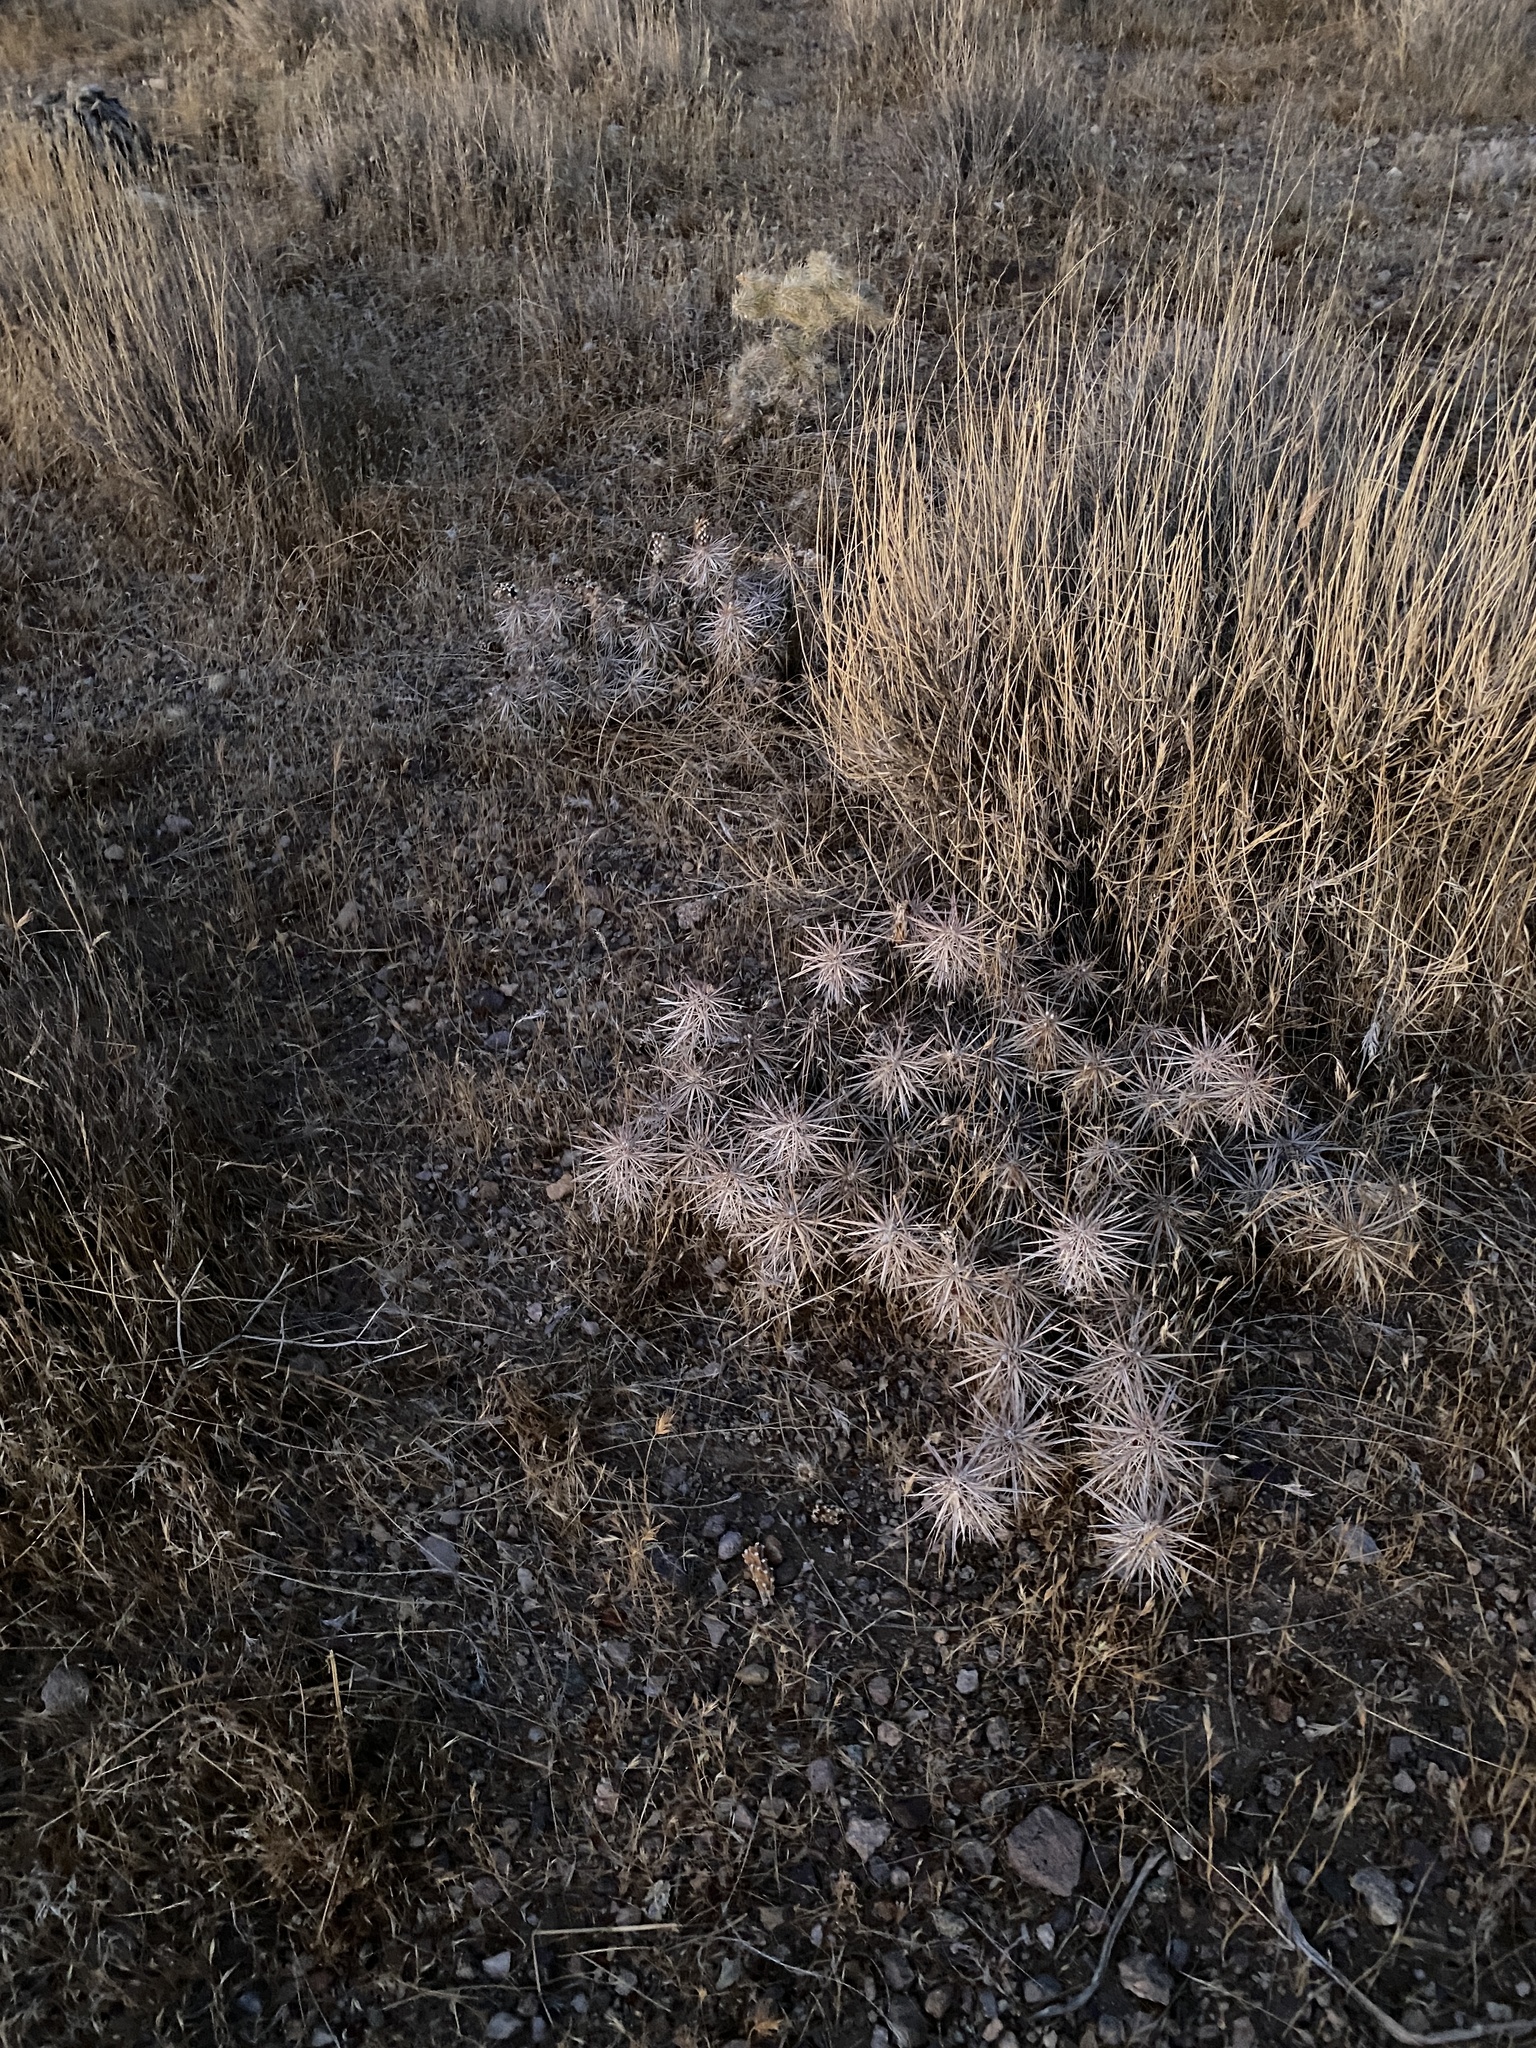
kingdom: Plantae
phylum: Tracheophyta
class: Magnoliopsida
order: Caryophyllales
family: Cactaceae
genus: Grusonia
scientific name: Grusonia parishiorum
